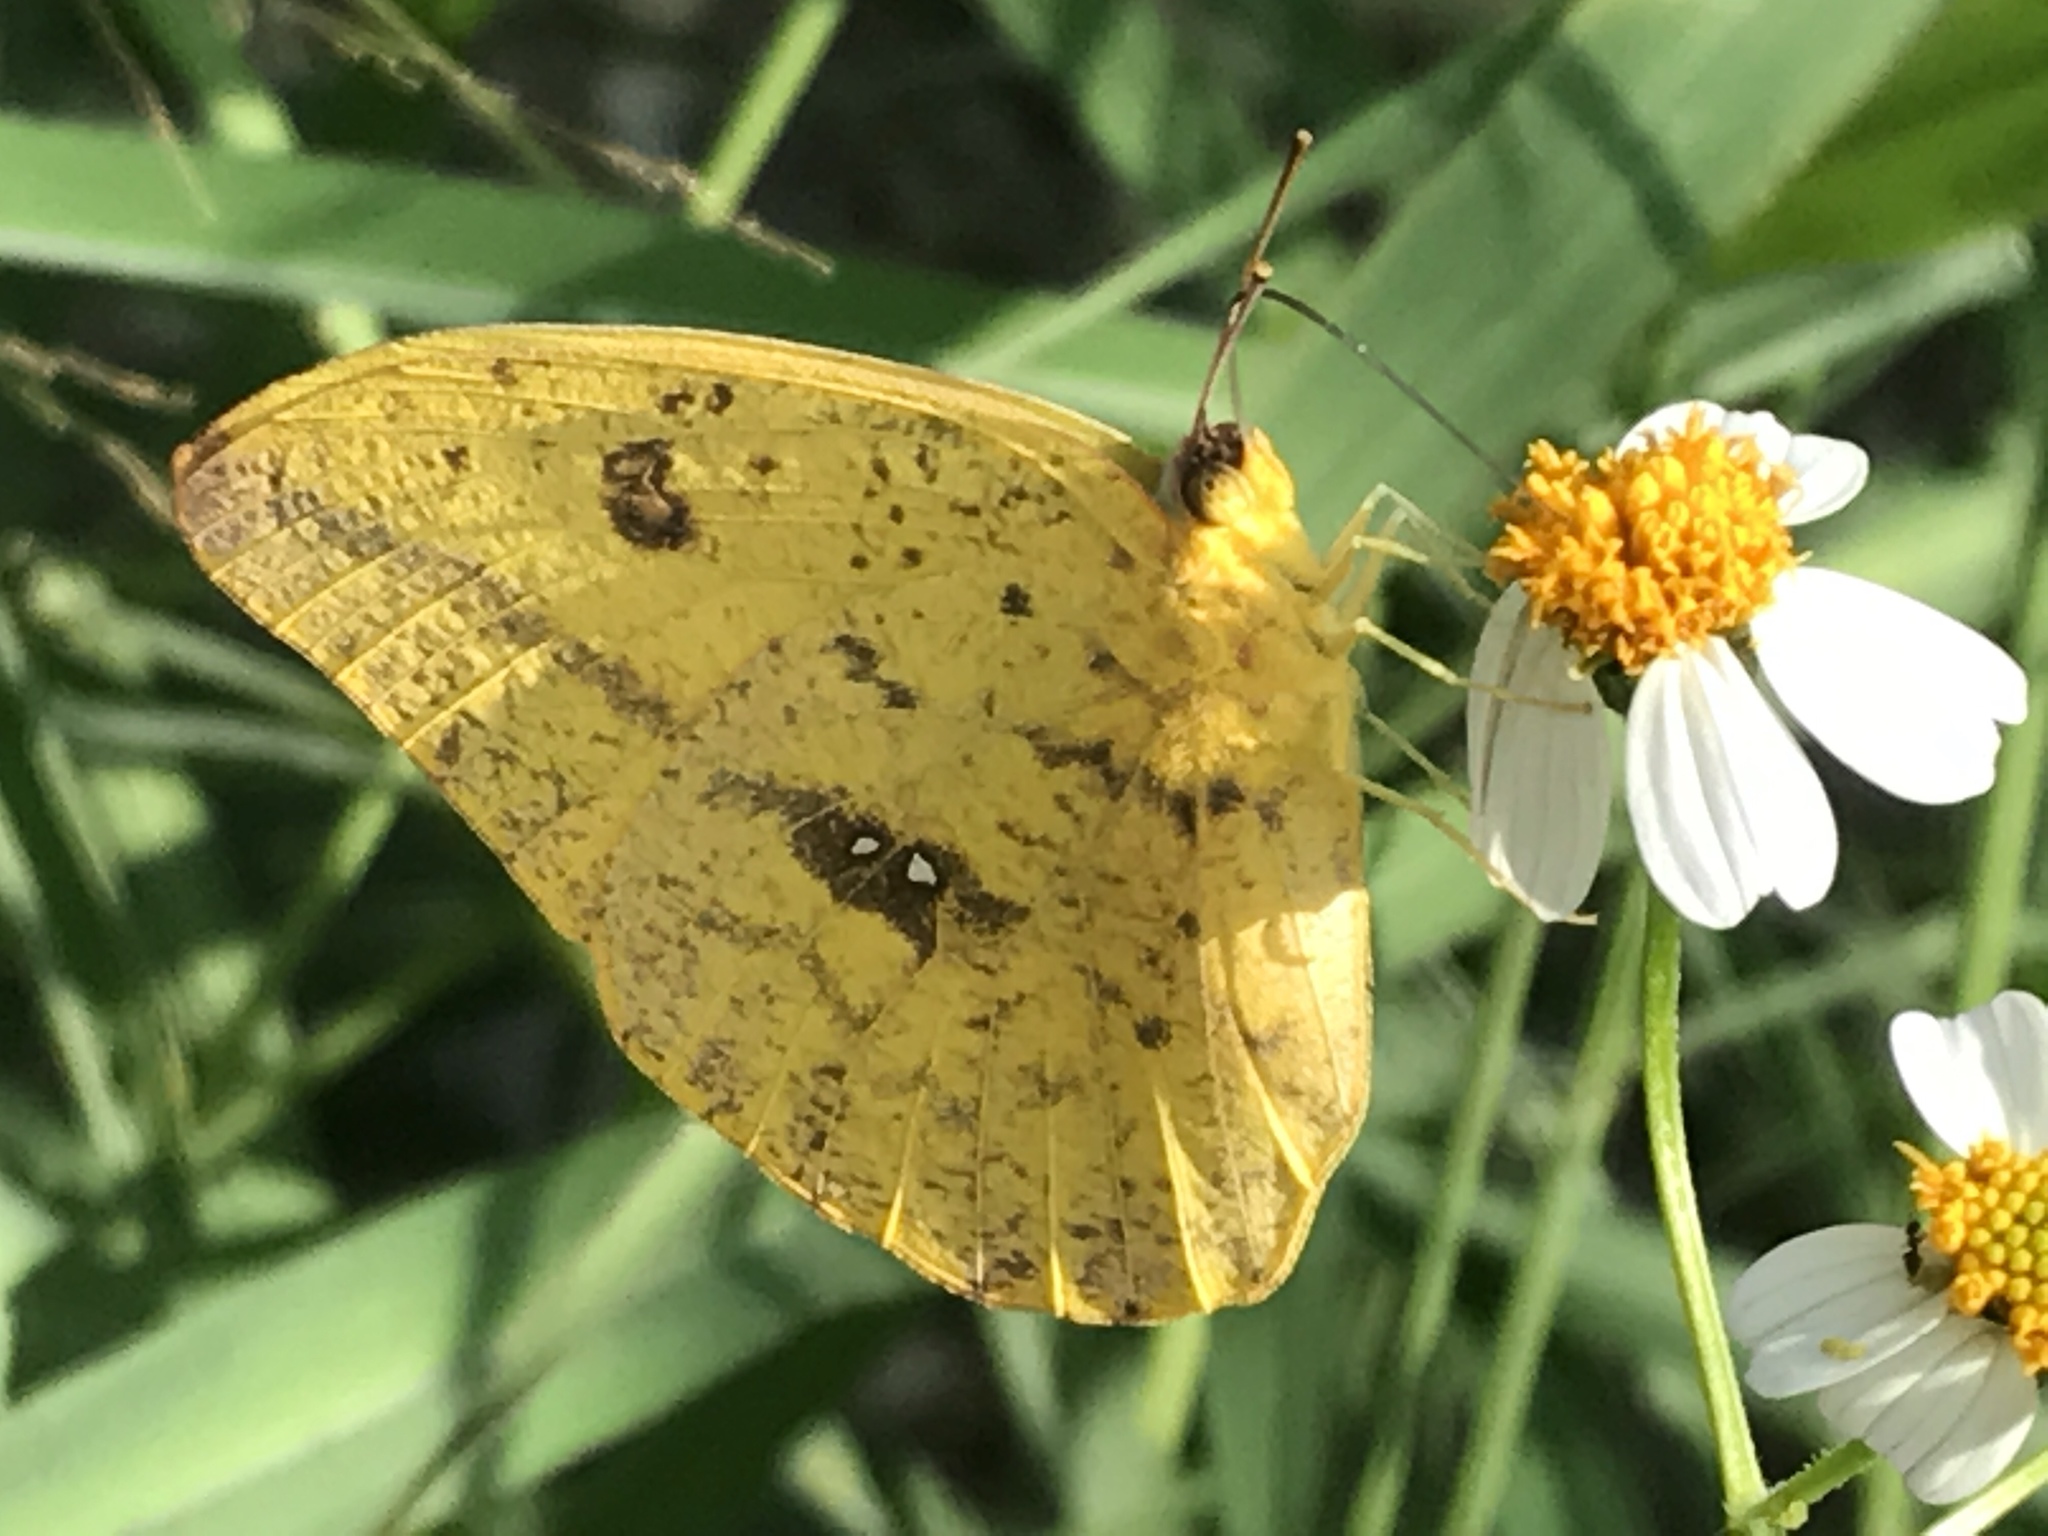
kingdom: Animalia
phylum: Arthropoda
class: Insecta
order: Lepidoptera
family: Pieridae
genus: Phoebis
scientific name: Phoebis agarithe
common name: Large orange sulphur
